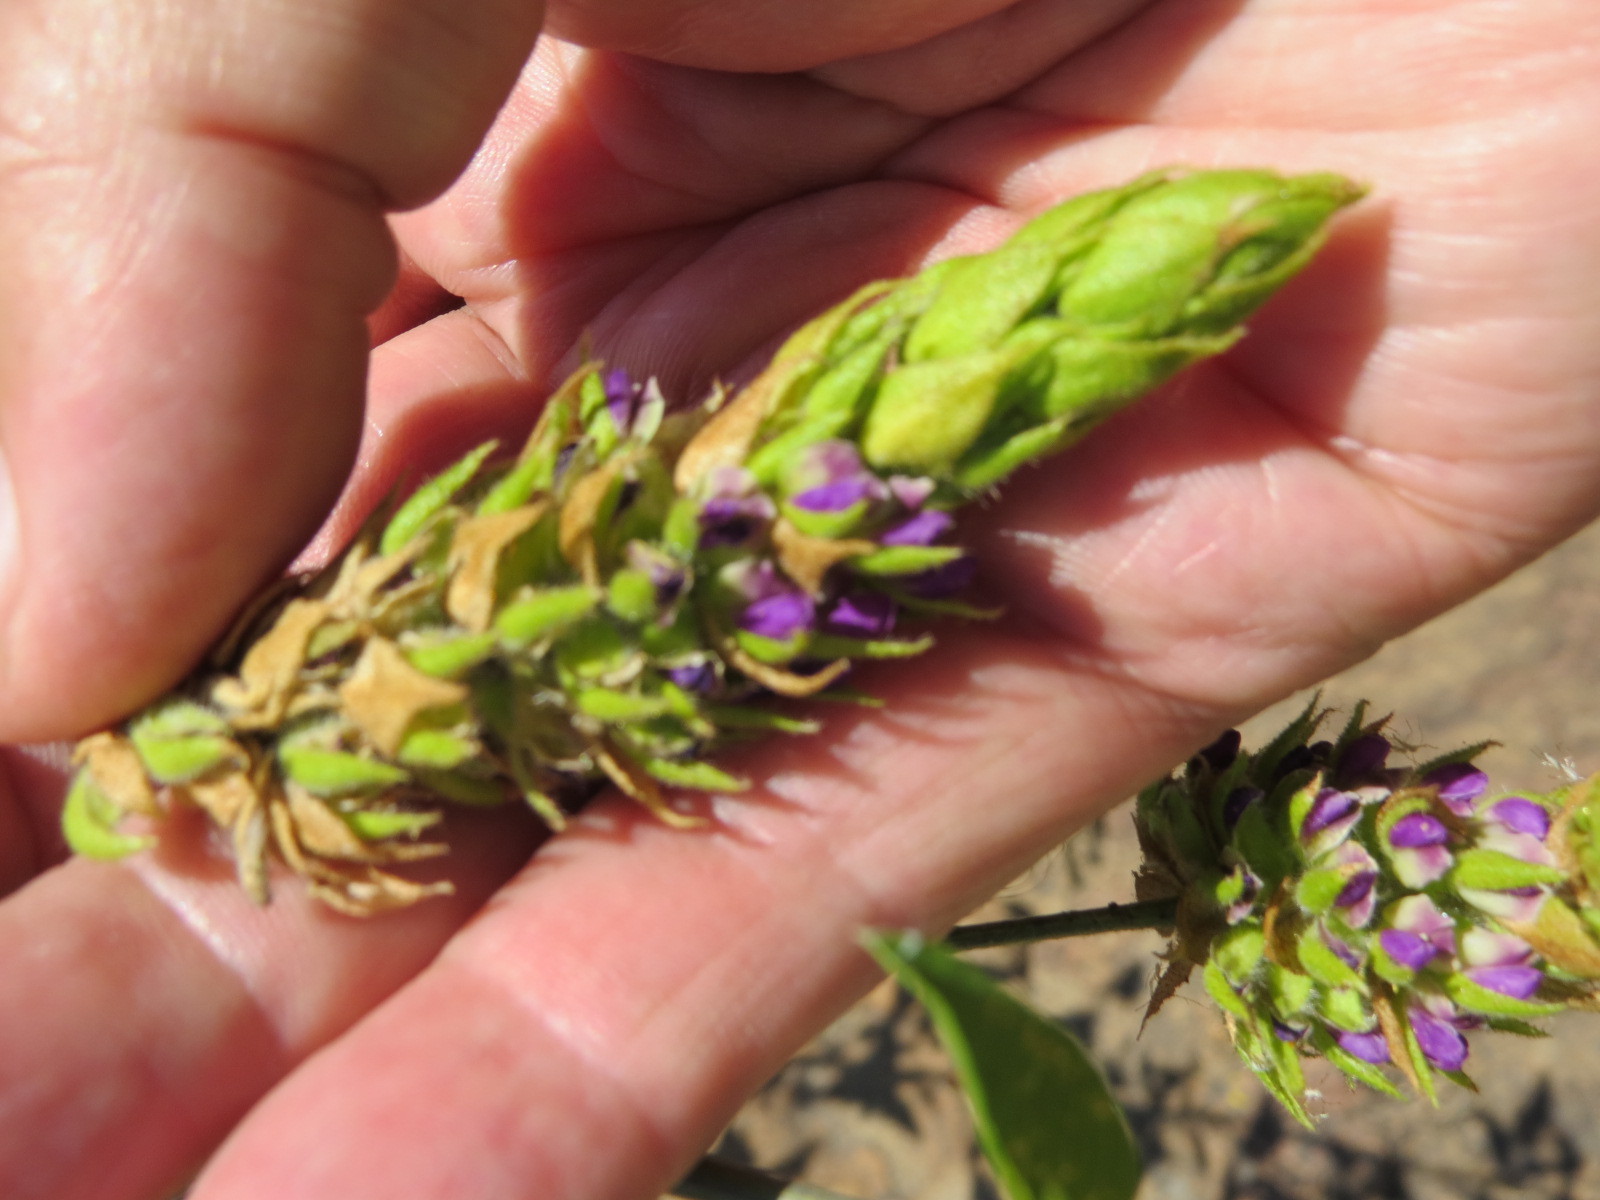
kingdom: Plantae
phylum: Tracheophyta
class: Magnoliopsida
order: Fabales
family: Fabaceae
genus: Hoita
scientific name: Hoita macrostachya
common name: Leatherroot
